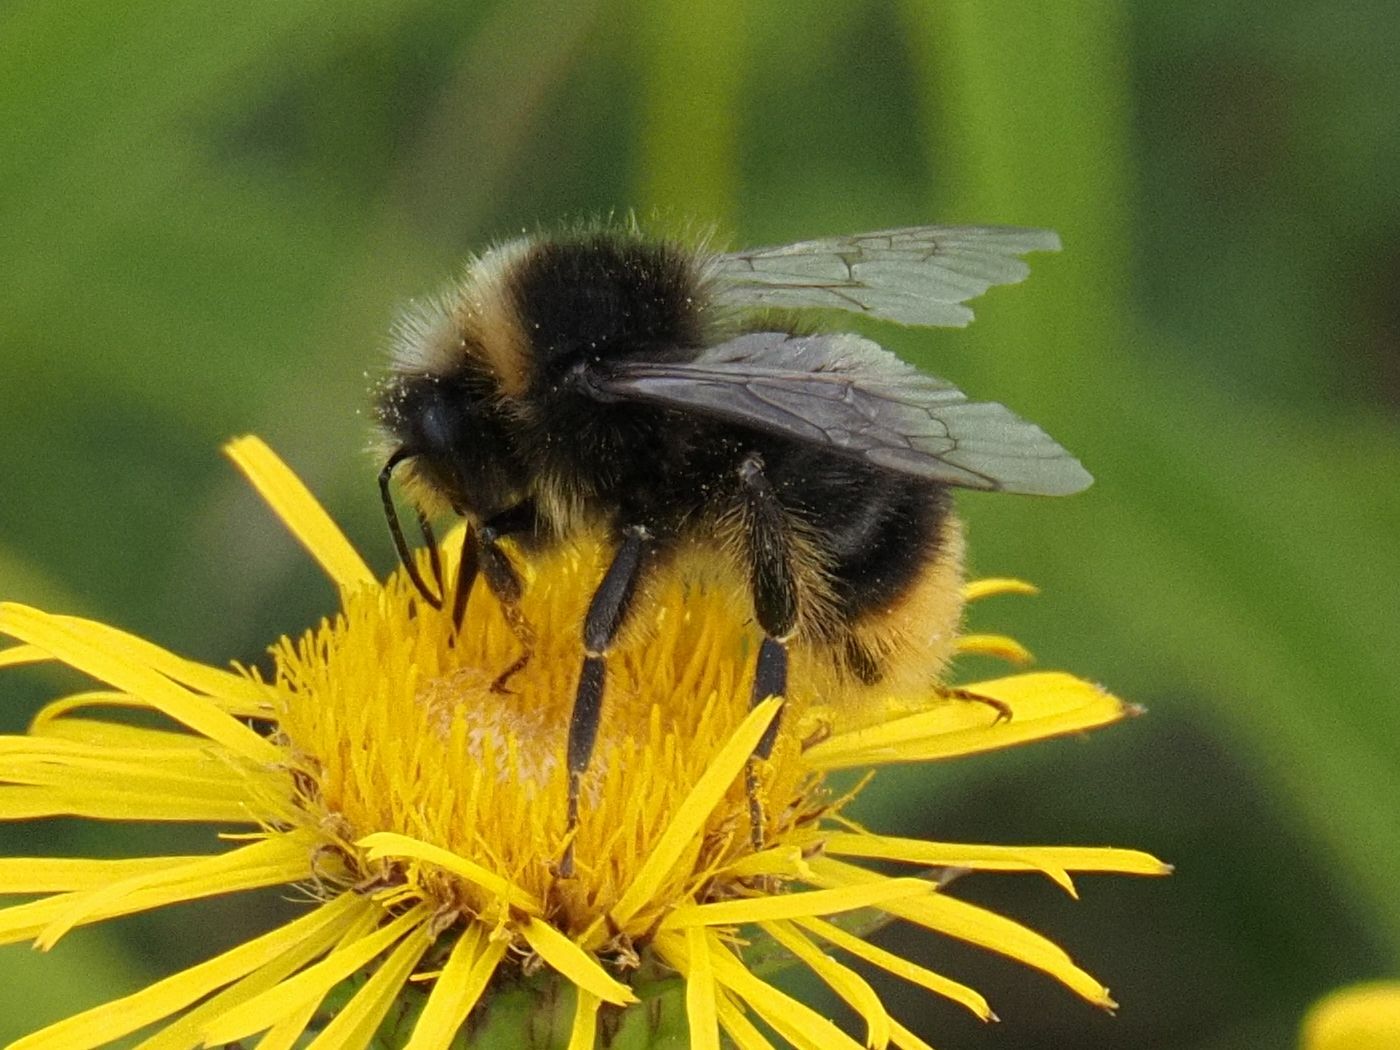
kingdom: Animalia
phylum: Arthropoda
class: Insecta
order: Hymenoptera
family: Apidae
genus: Bombus
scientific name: Bombus lapidarius
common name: Large red-tailed humble-bee
